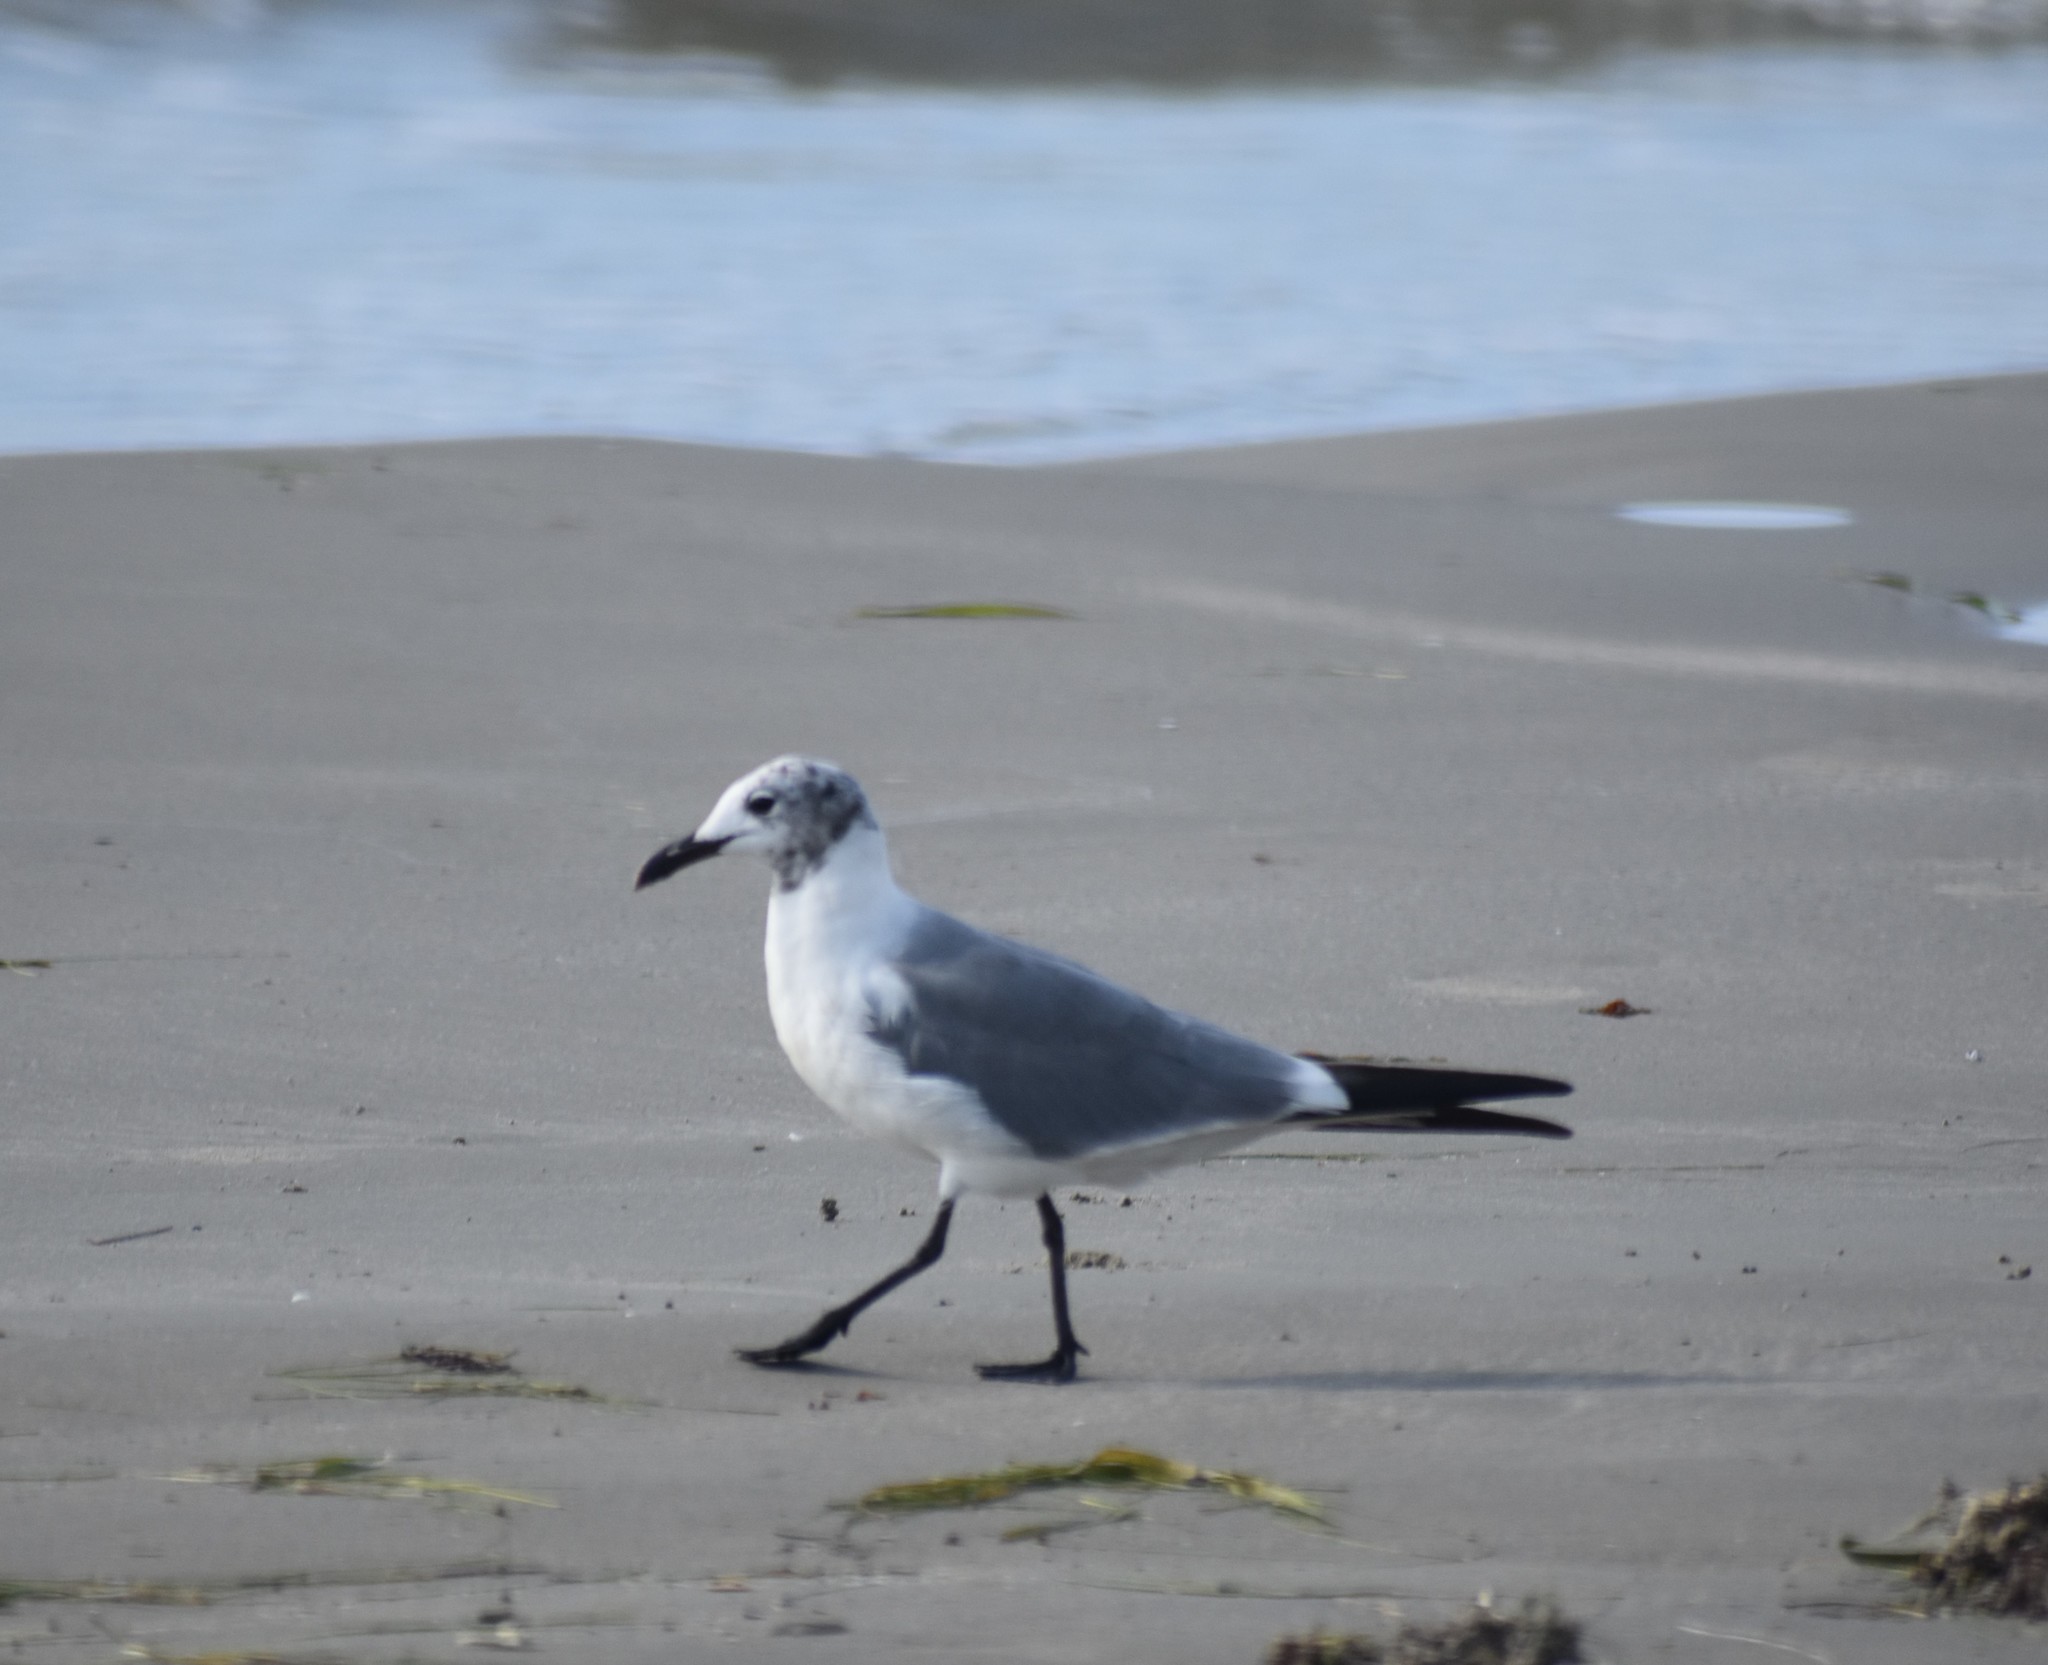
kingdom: Animalia
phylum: Chordata
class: Aves
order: Charadriiformes
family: Laridae
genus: Leucophaeus
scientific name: Leucophaeus atricilla
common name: Laughing gull
